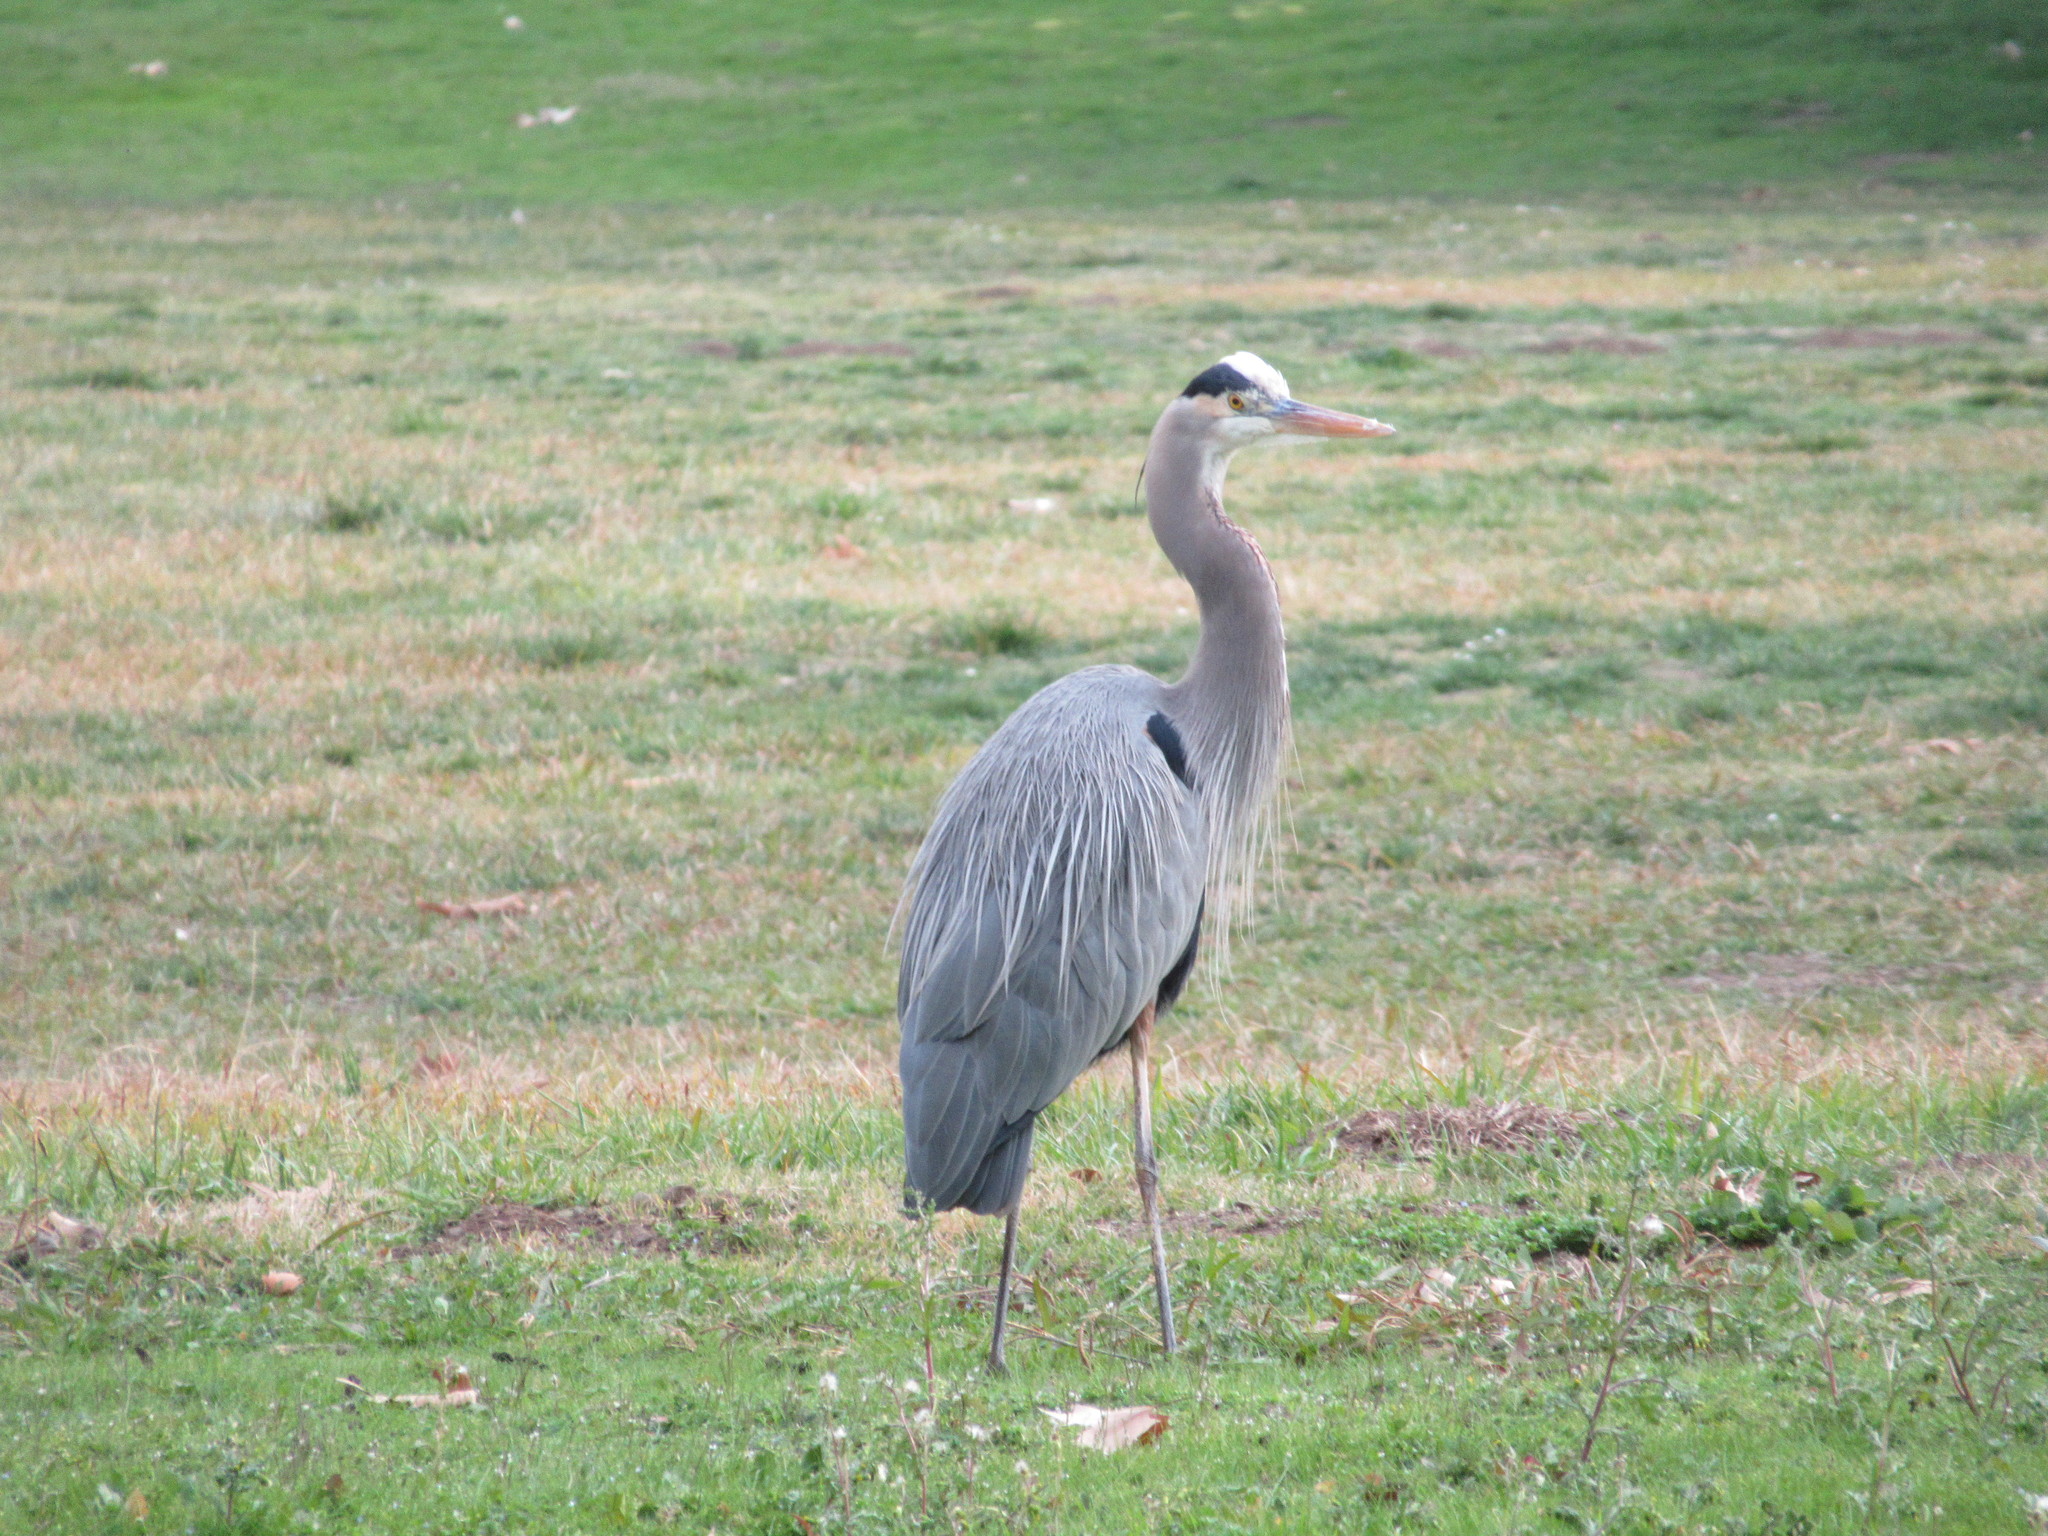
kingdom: Animalia
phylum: Chordata
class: Aves
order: Pelecaniformes
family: Ardeidae
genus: Ardea
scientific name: Ardea herodias
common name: Great blue heron
